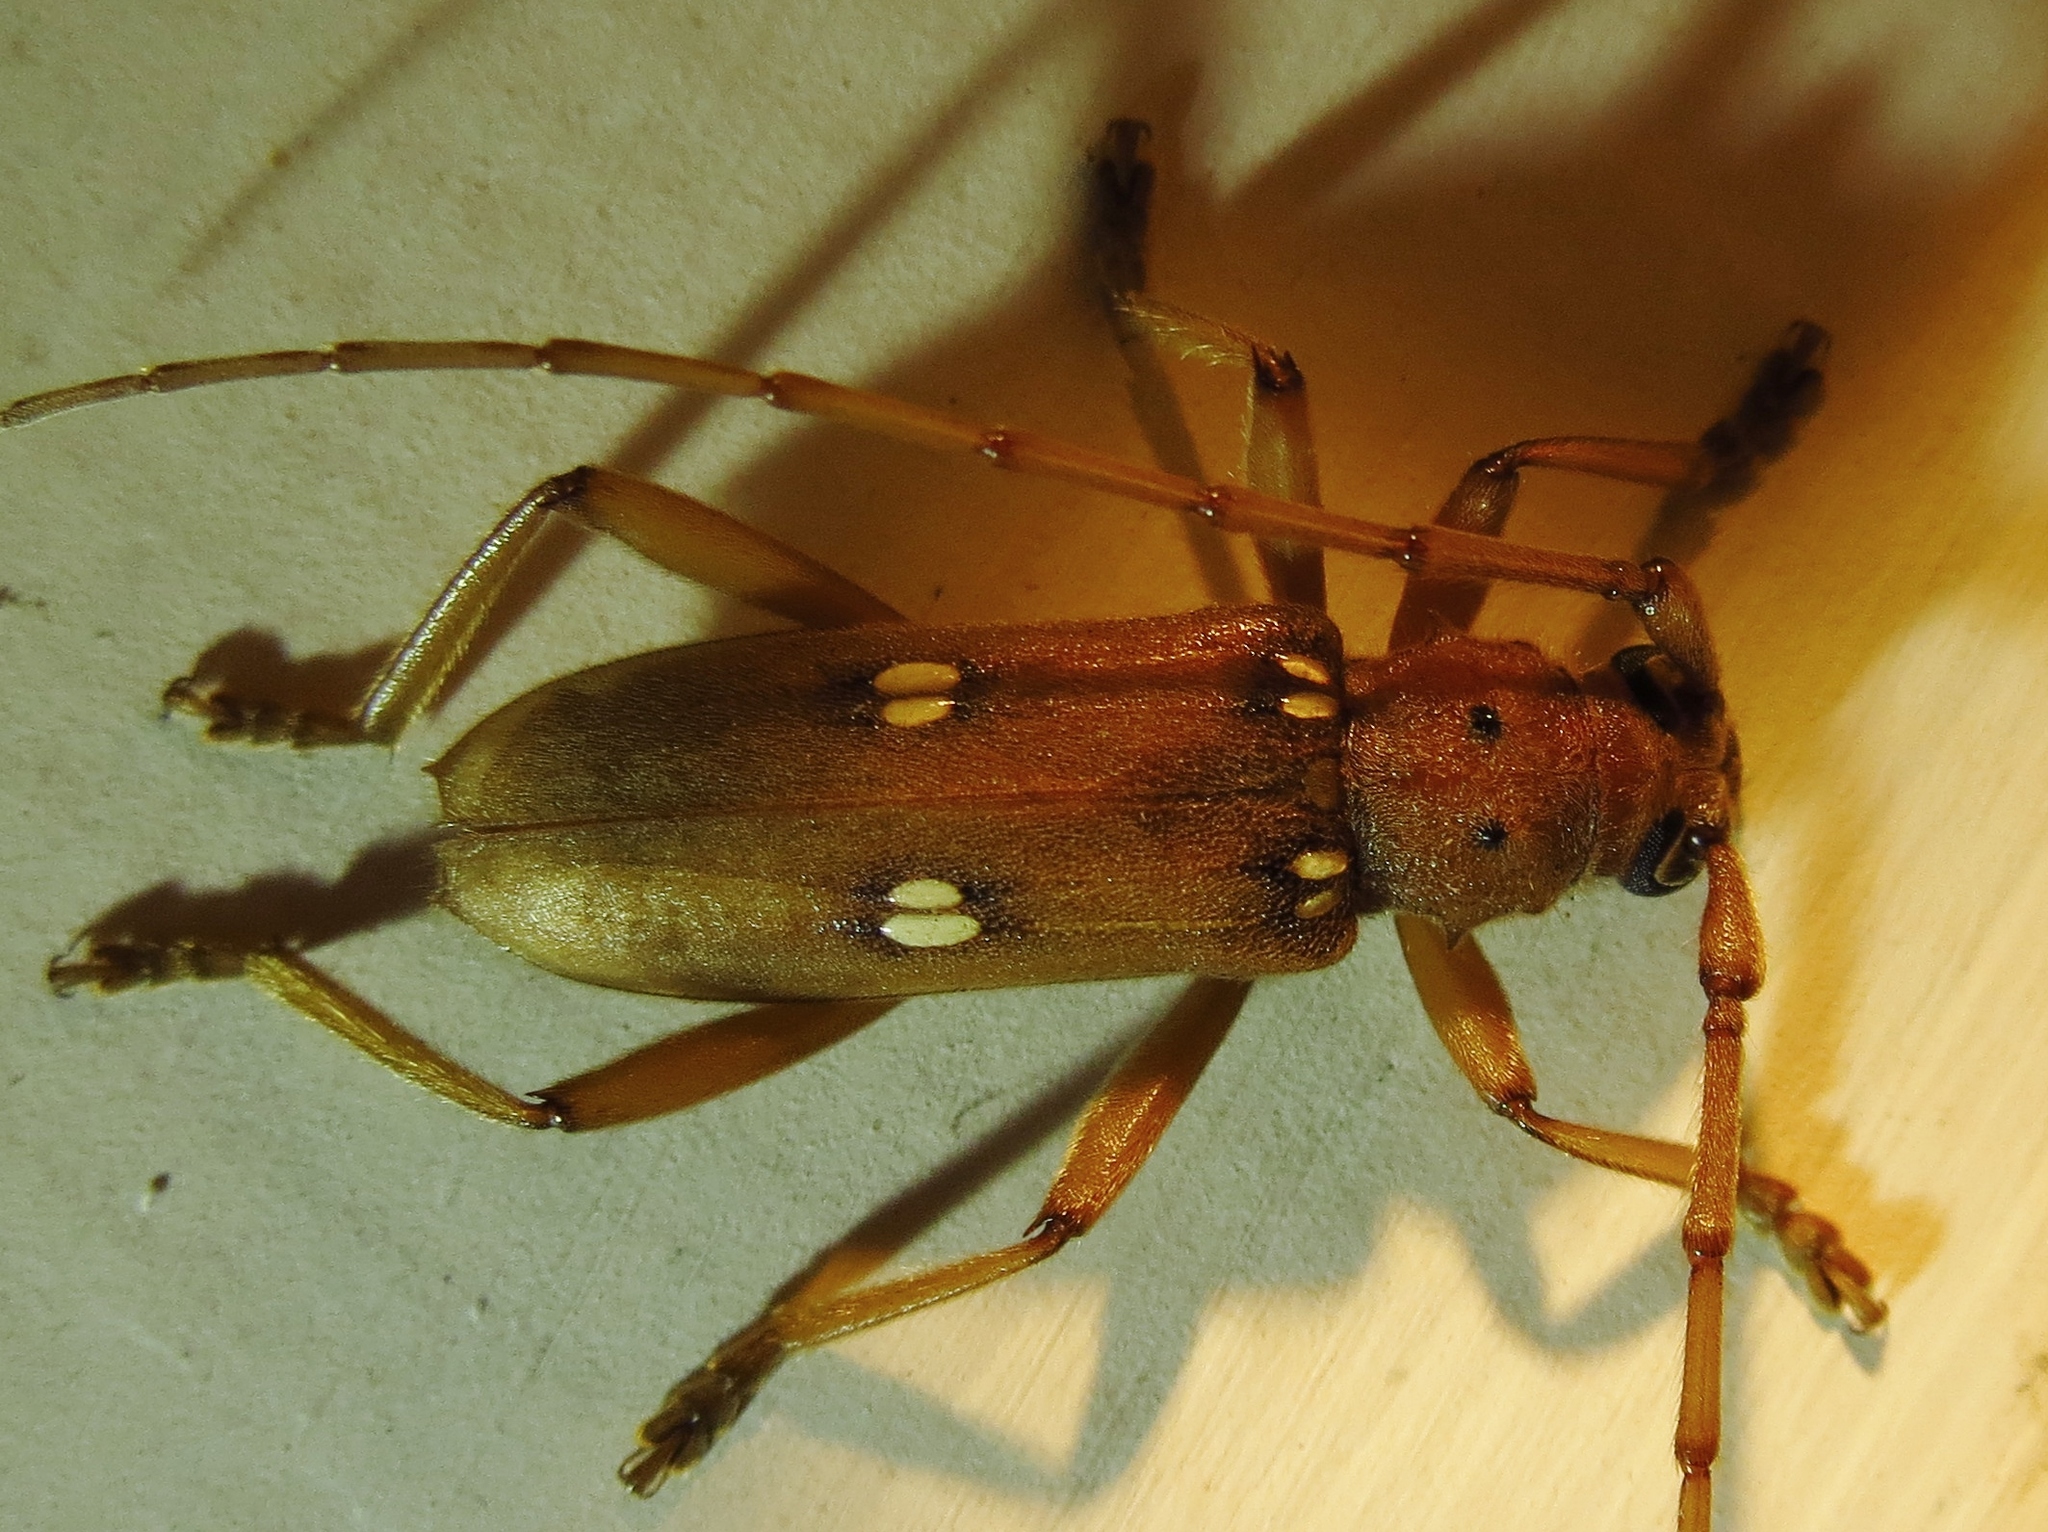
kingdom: Animalia
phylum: Arthropoda
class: Insecta
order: Coleoptera
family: Cerambycidae
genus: Eburia
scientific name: Eburia quadrigeminata
